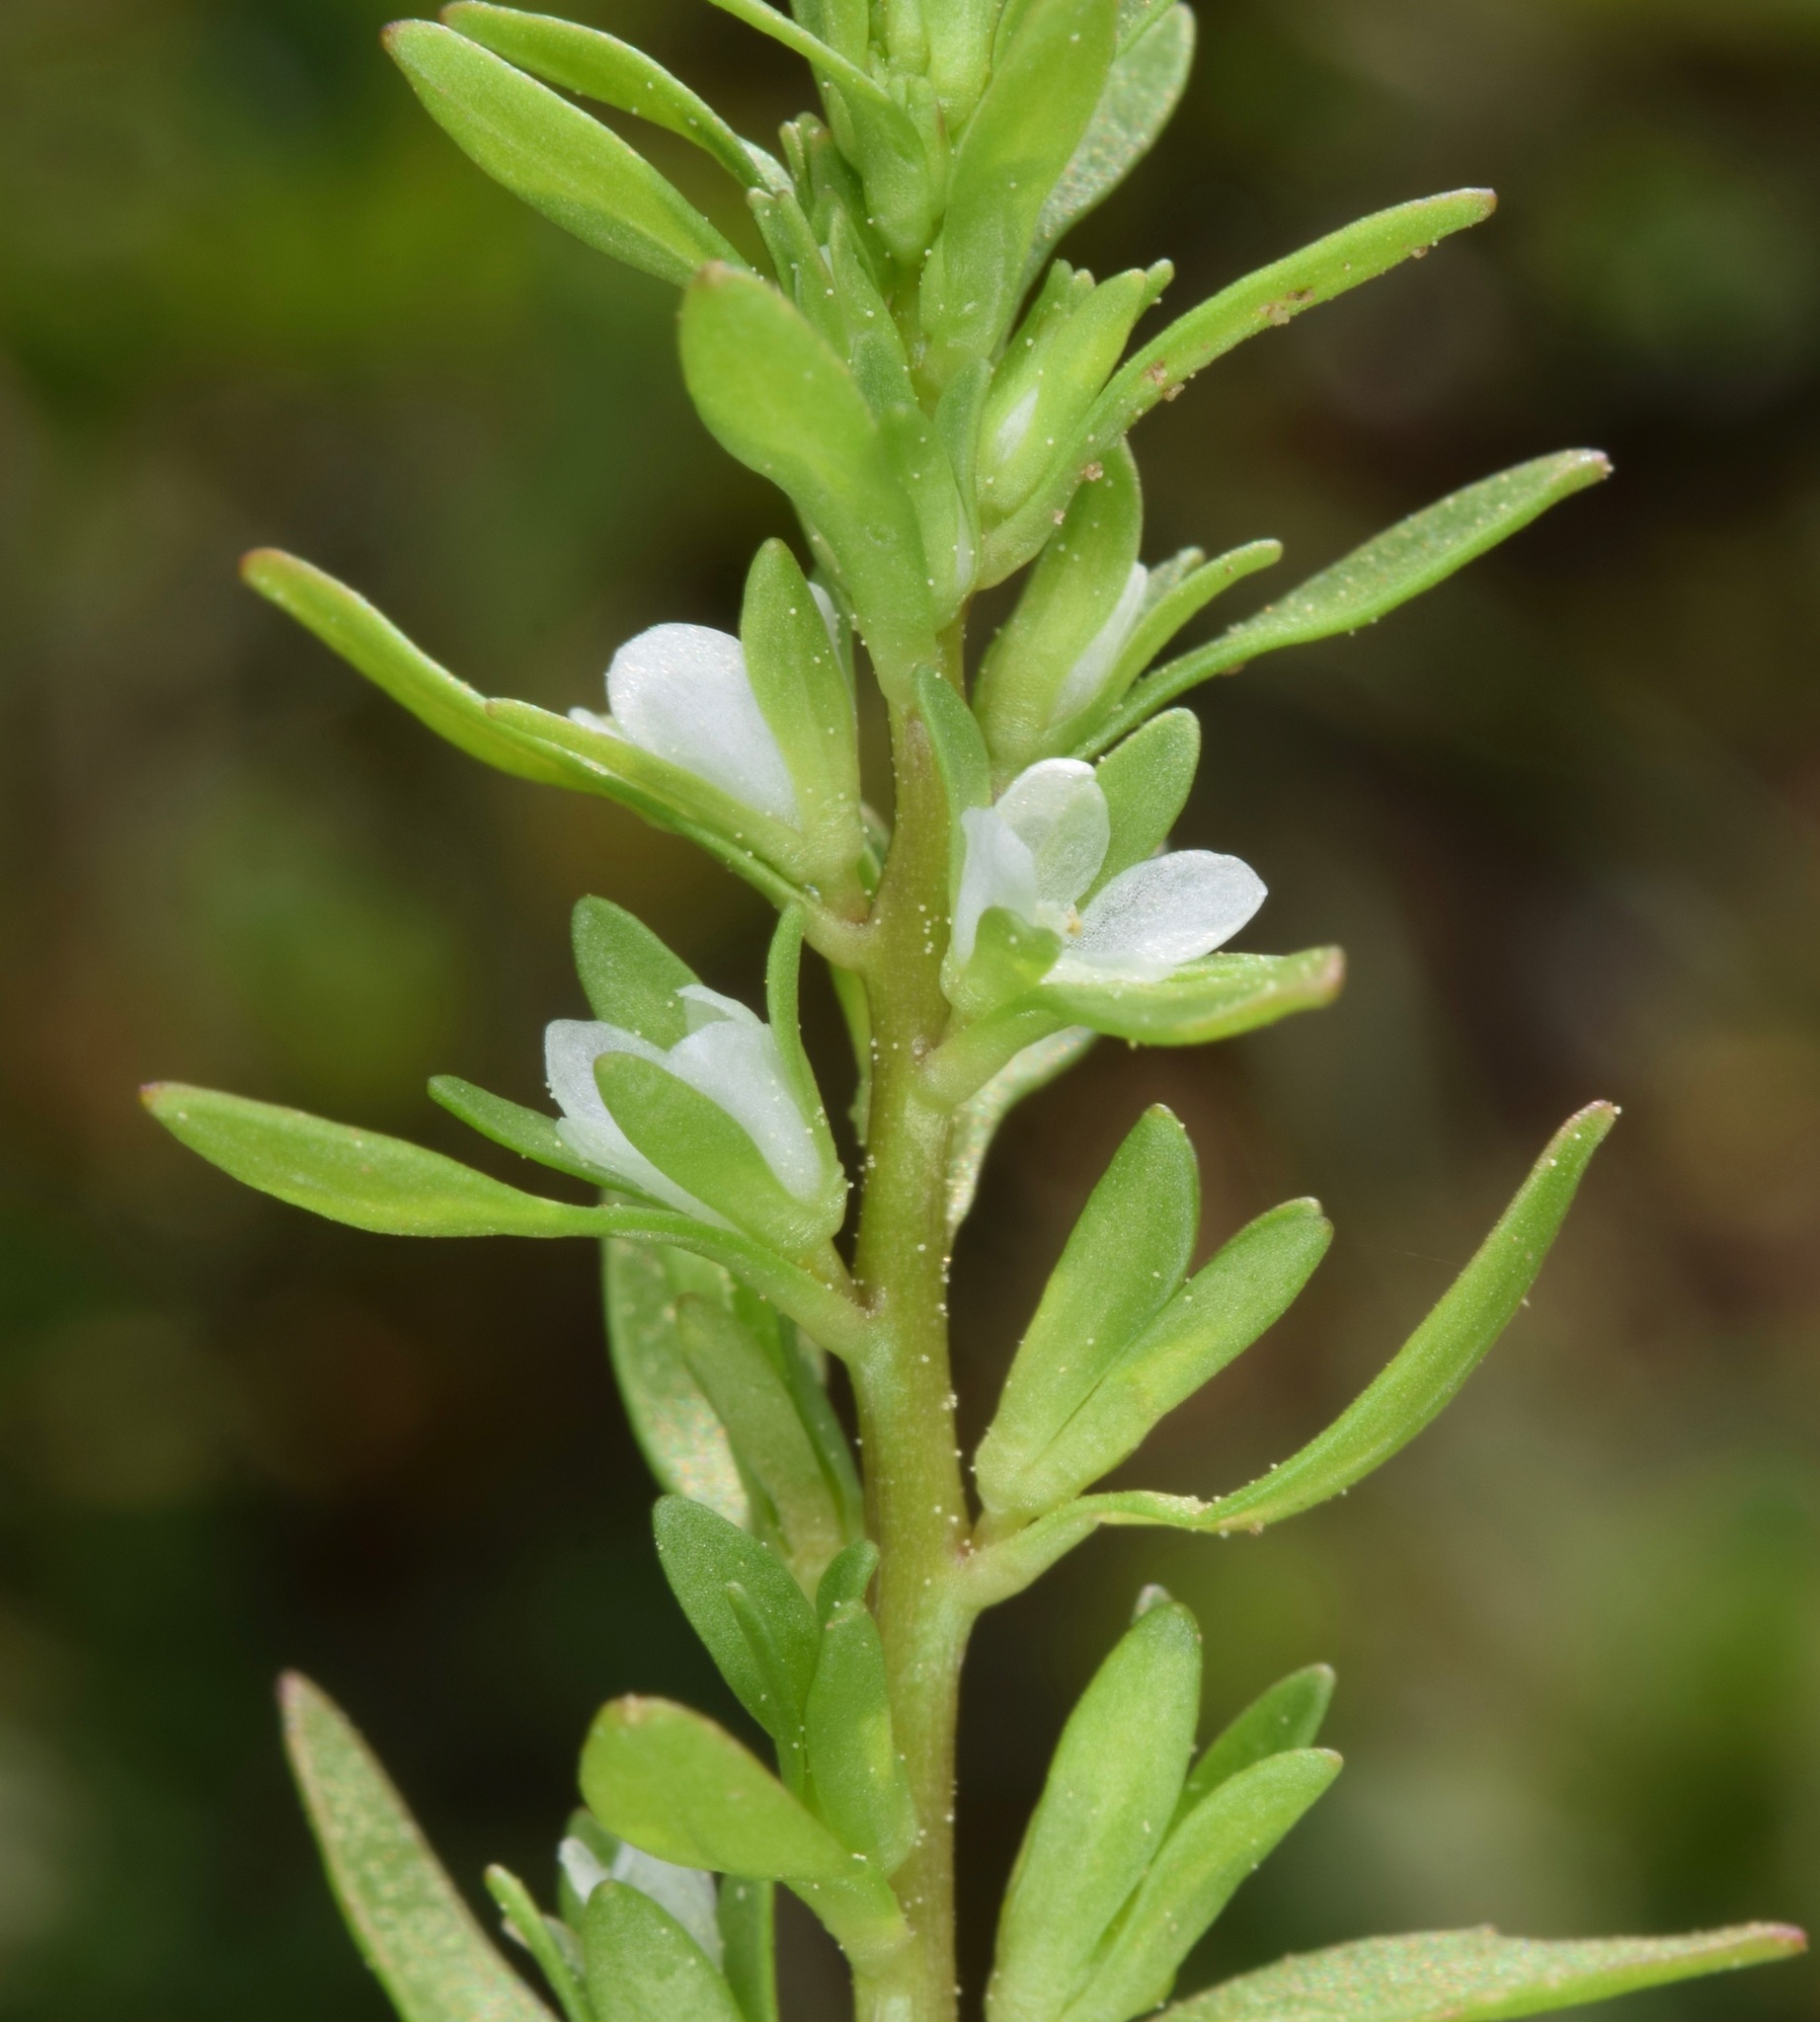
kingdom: Plantae
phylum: Tracheophyta
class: Magnoliopsida
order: Lamiales
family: Plantaginaceae
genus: Veronica
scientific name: Veronica peregrina
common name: Neckweed
